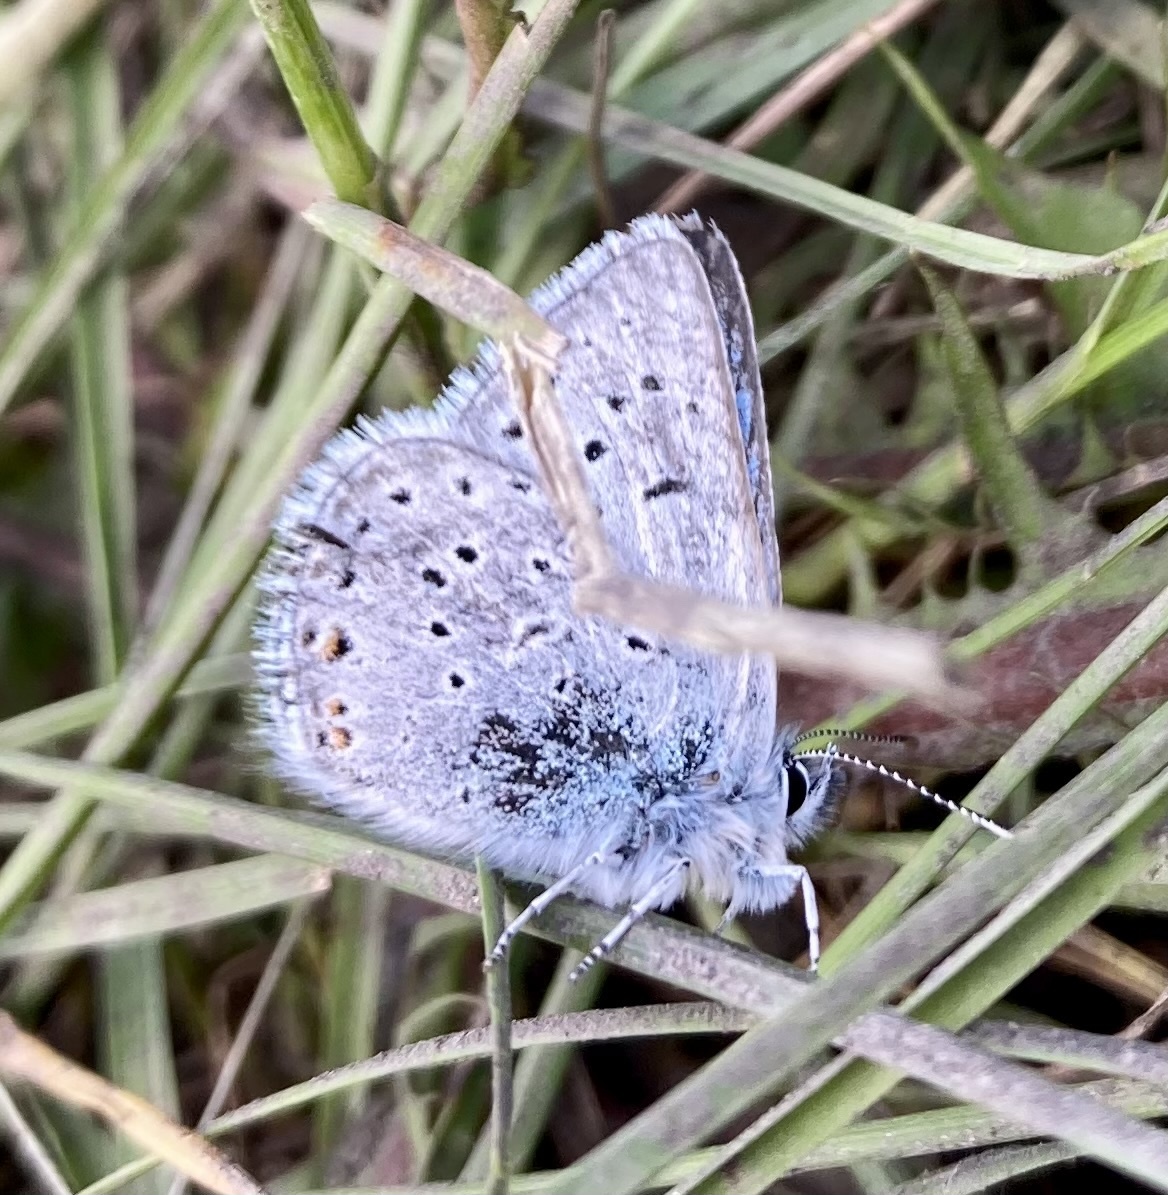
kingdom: Animalia
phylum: Arthropoda
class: Insecta
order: Lepidoptera
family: Lycaenidae
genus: Icaricia
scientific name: Icaricia saepiolus
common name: Greenish blue
